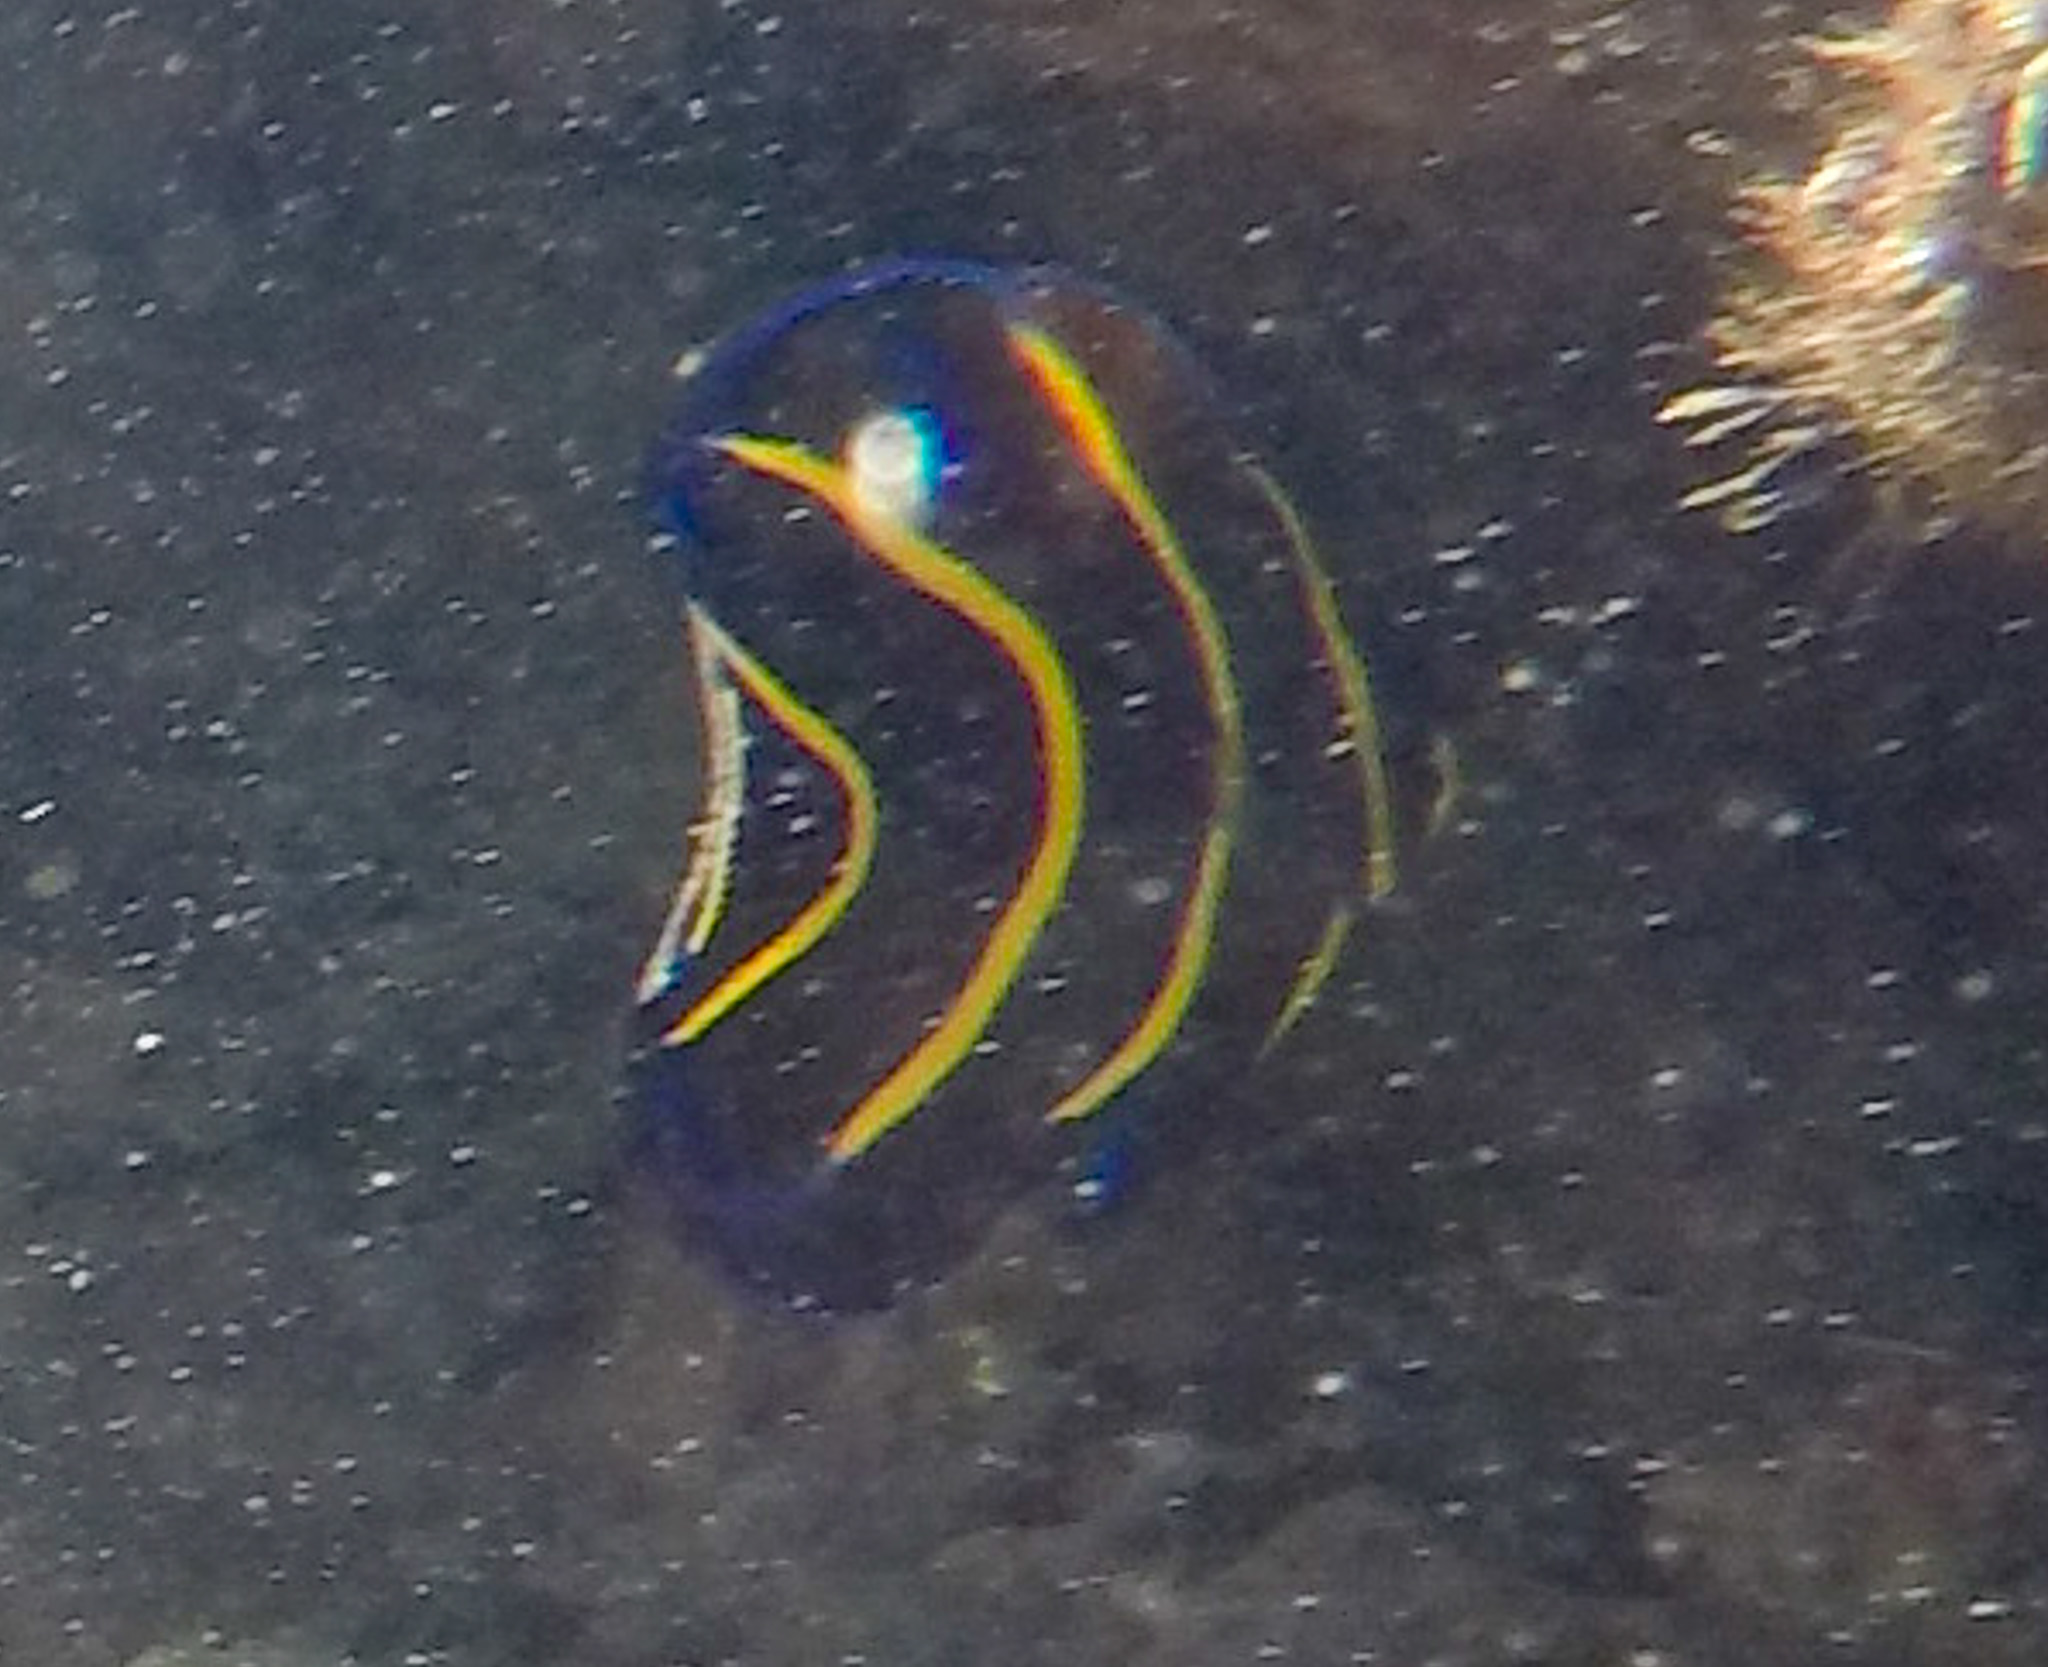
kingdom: Animalia
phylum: Chordata
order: Perciformes
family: Pomacanthidae
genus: Pomacanthus
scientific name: Pomacanthus zonipectus
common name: Cortez angelfish
